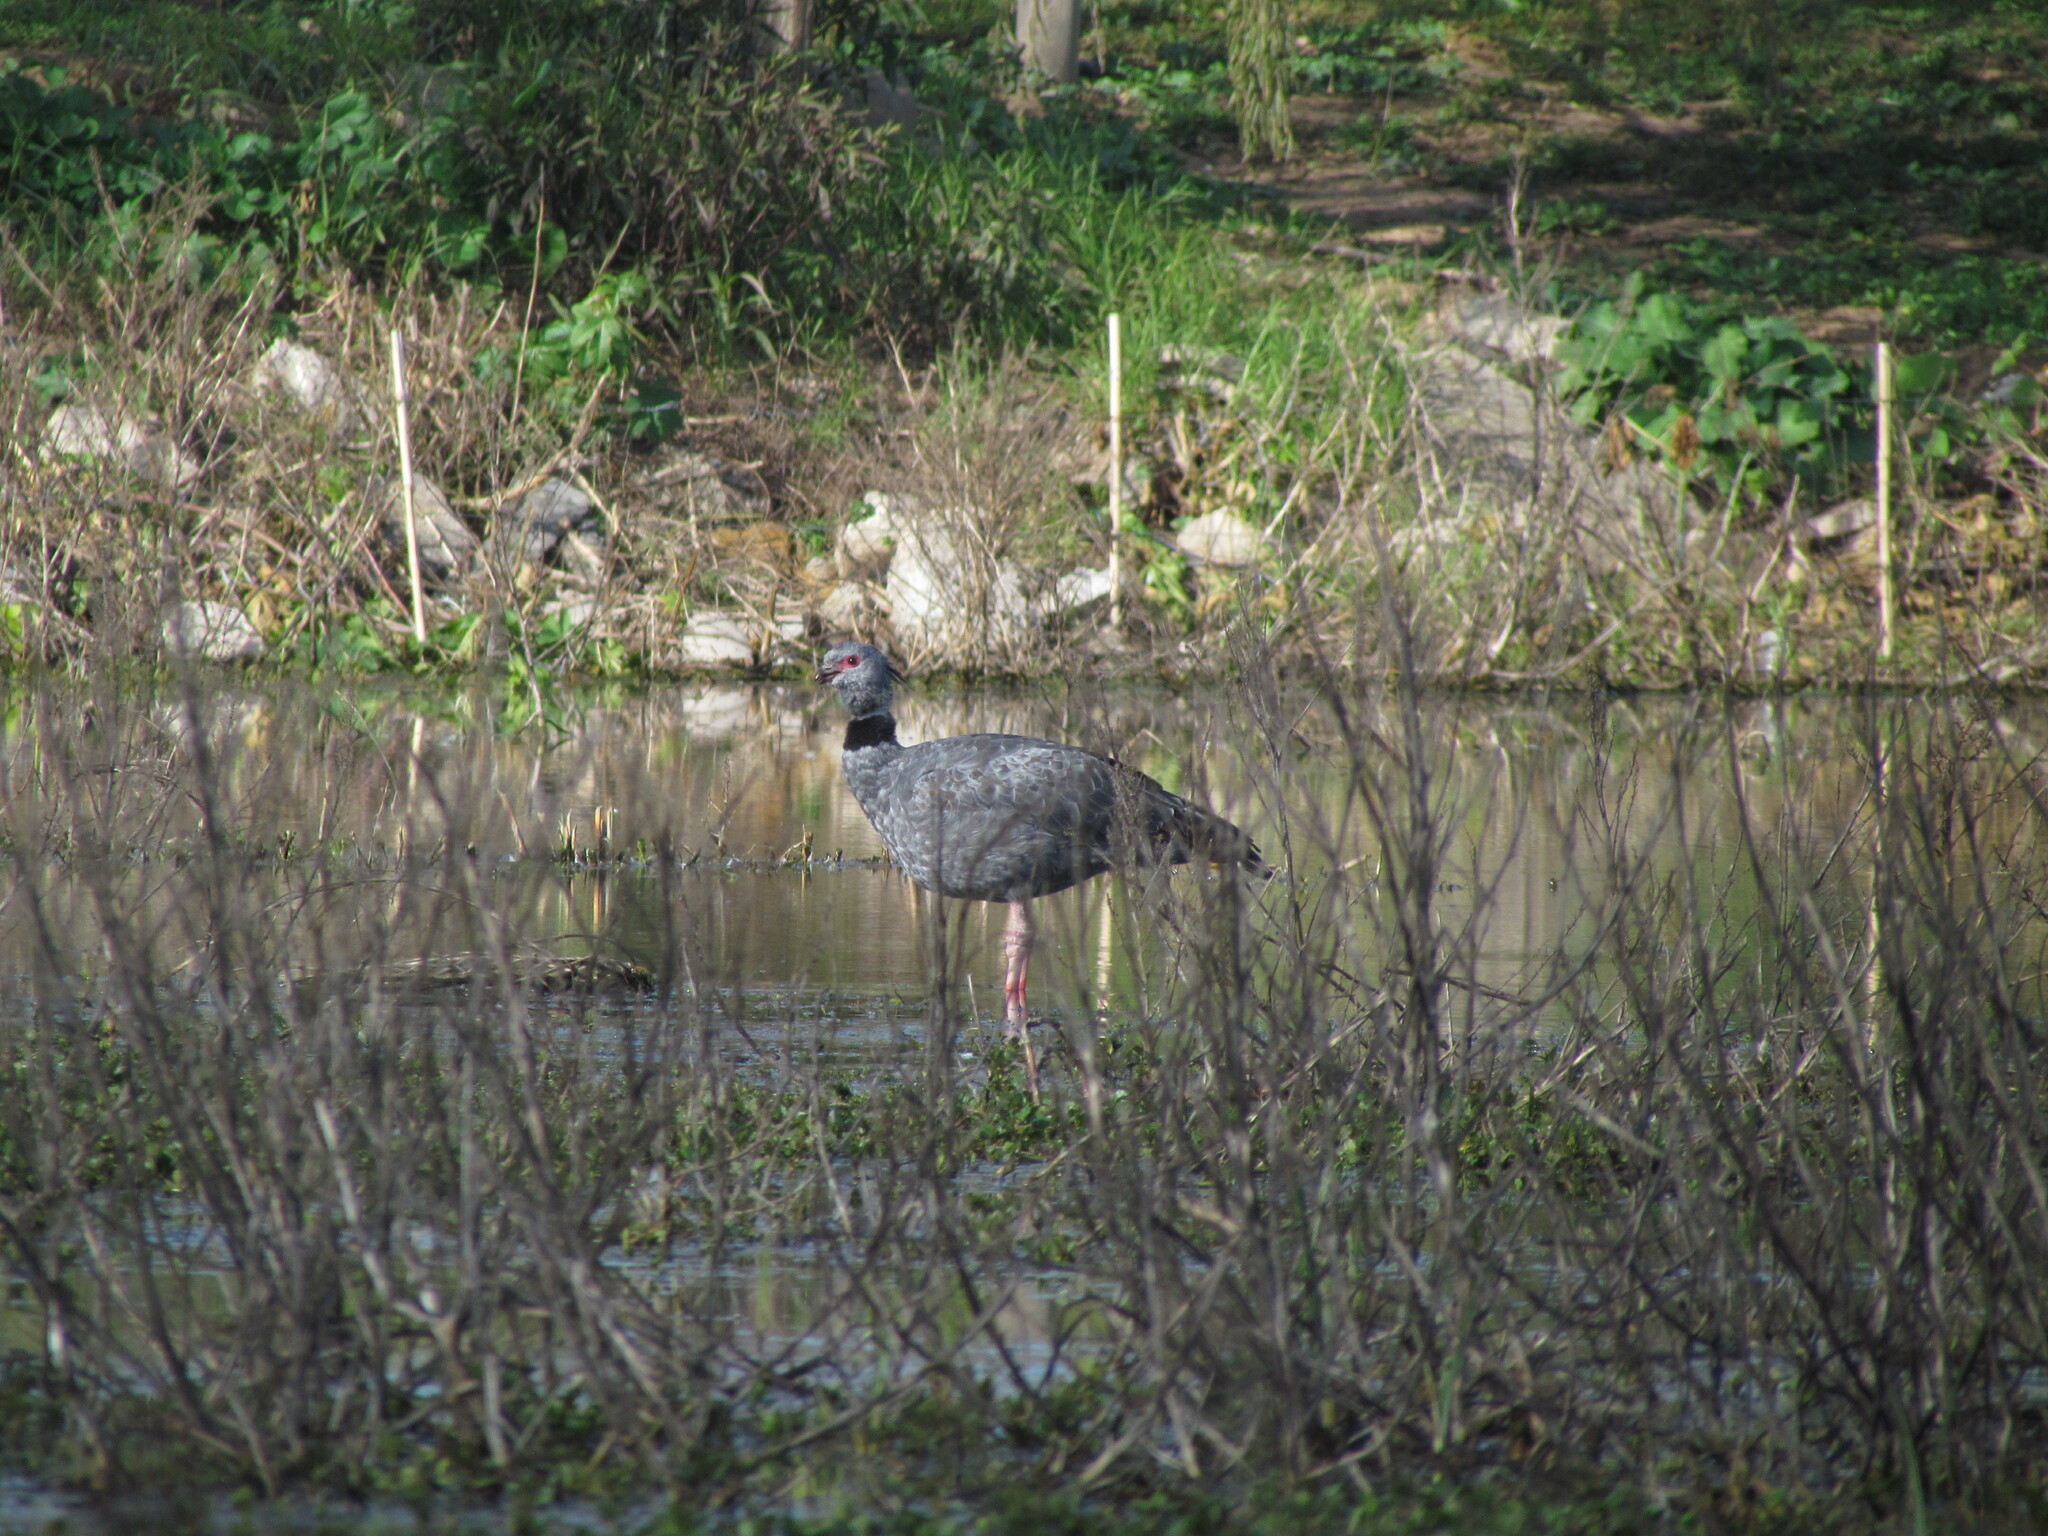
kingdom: Animalia
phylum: Chordata
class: Aves
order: Anseriformes
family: Anhimidae
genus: Chauna
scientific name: Chauna torquata
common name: Southern screamer
